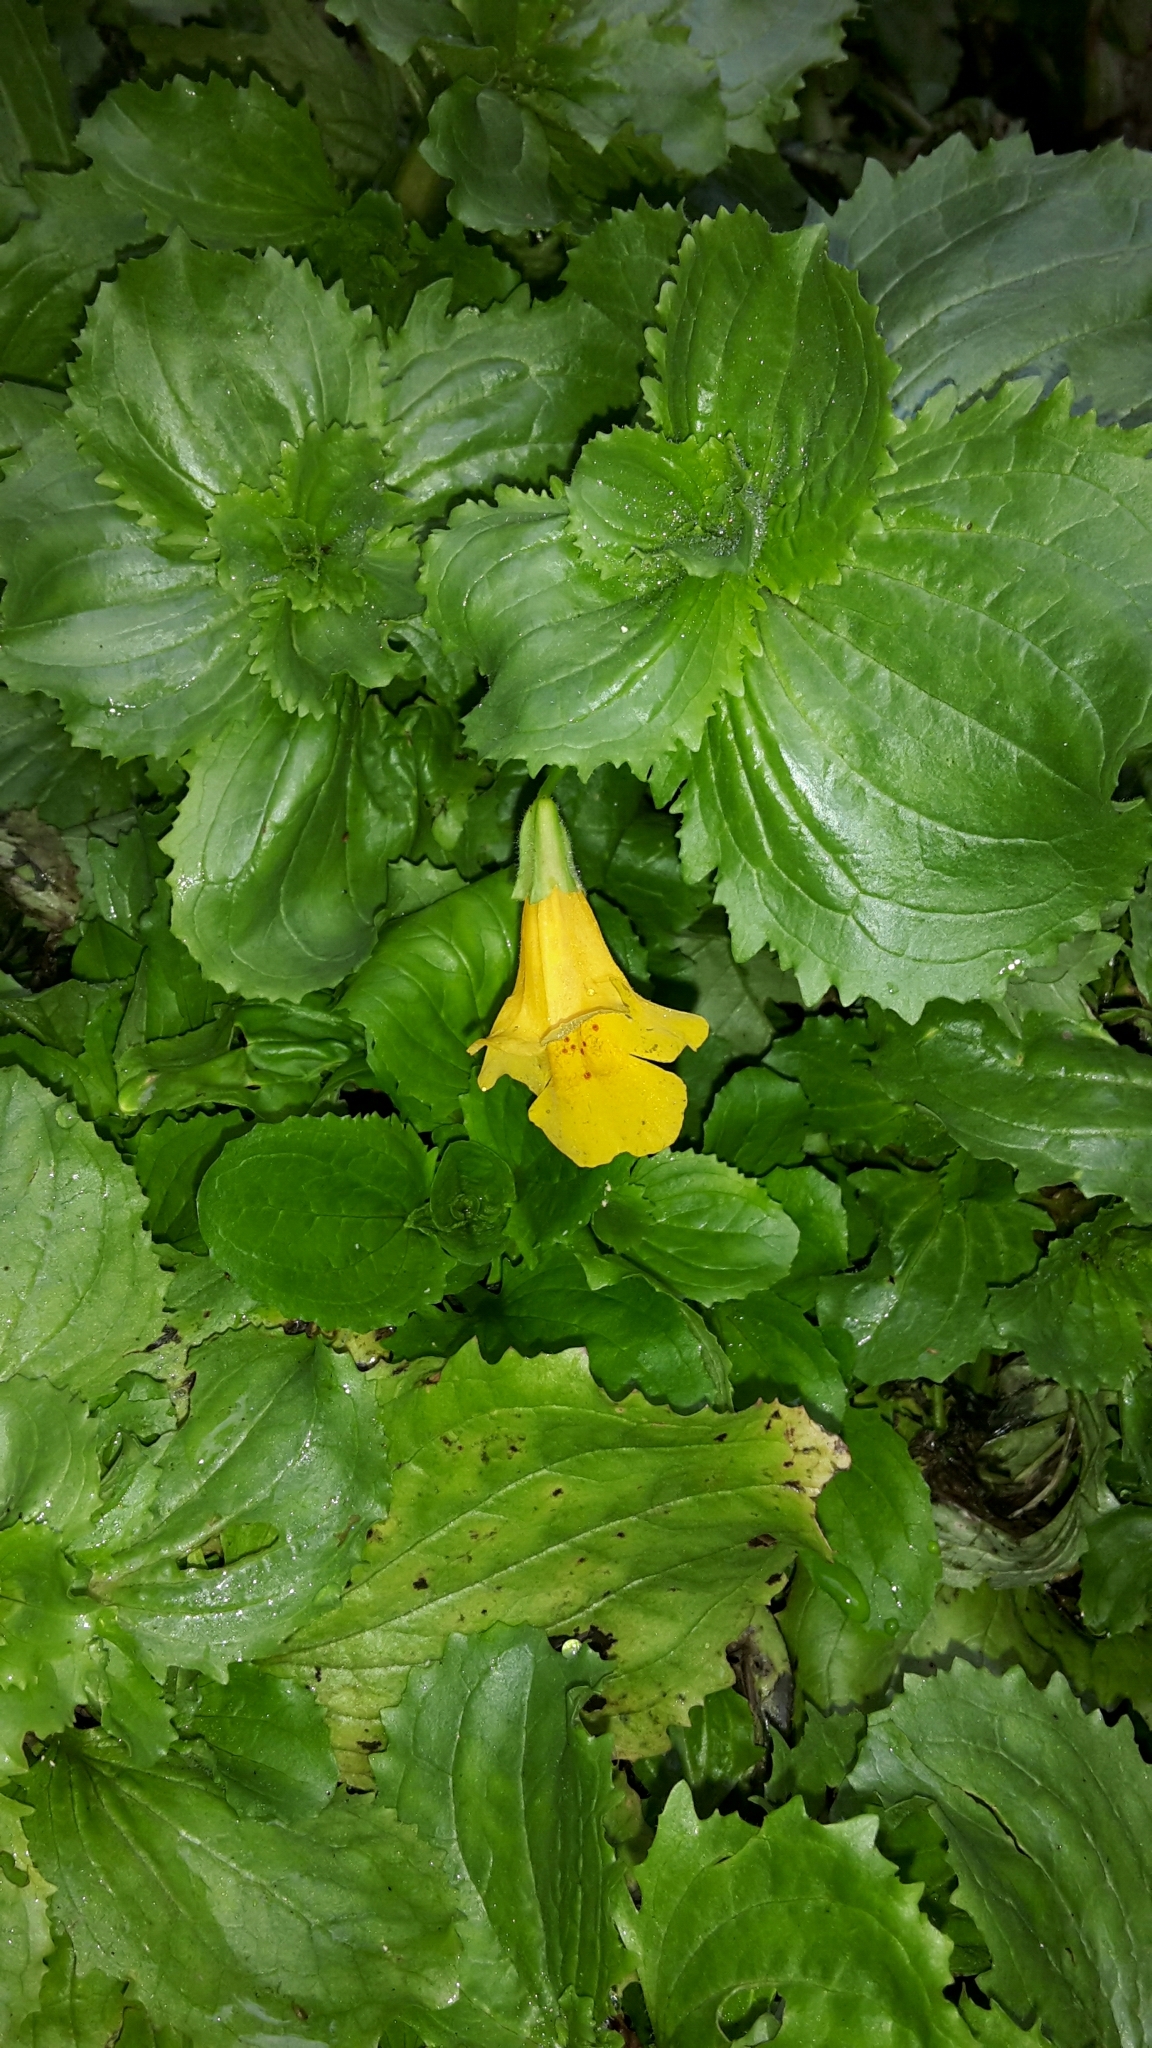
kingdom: Plantae
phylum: Tracheophyta
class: Magnoliopsida
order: Lamiales
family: Phrymaceae
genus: Erythranthe
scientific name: Erythranthe guttata
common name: Monkeyflower
